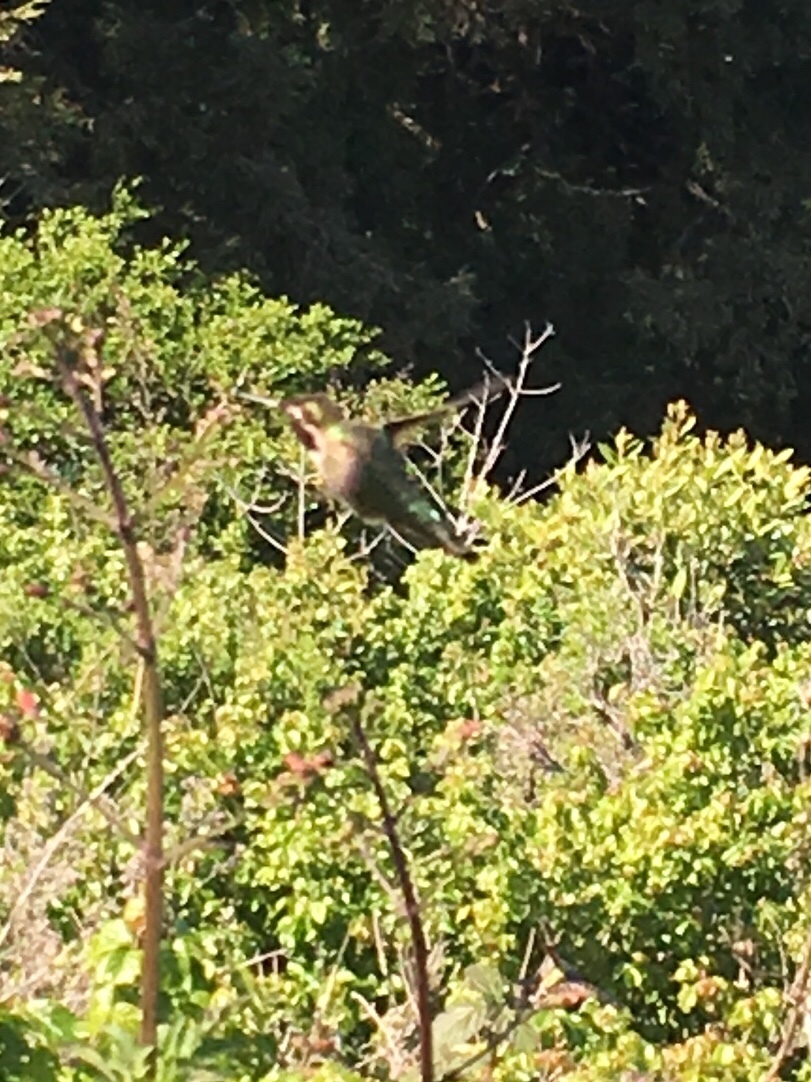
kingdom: Animalia
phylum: Chordata
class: Aves
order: Apodiformes
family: Trochilidae
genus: Calypte
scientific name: Calypte anna
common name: Anna's hummingbird
